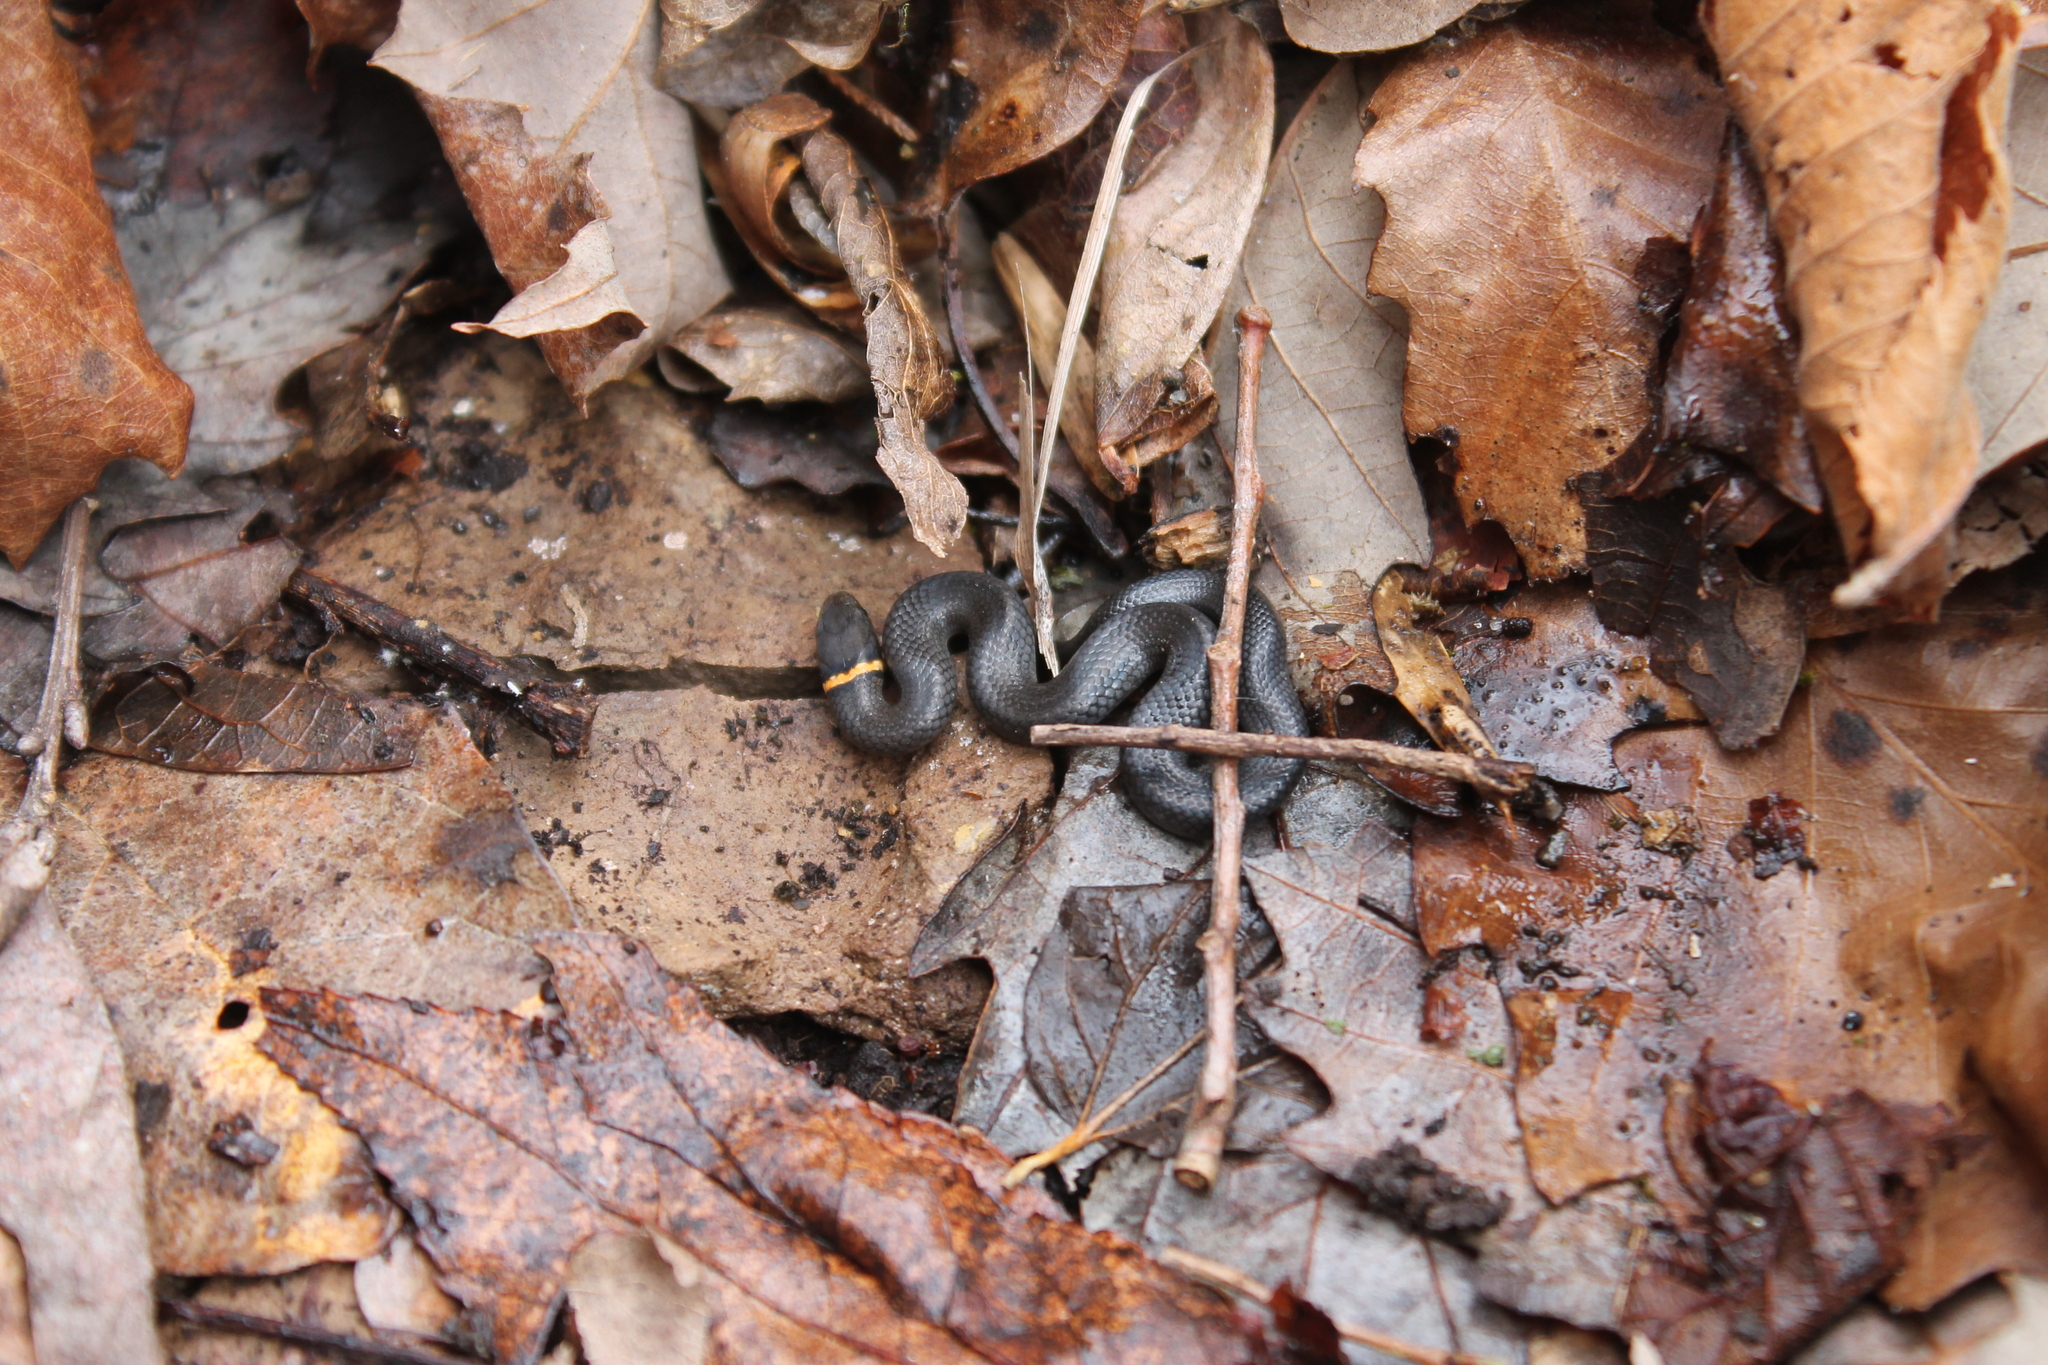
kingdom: Animalia
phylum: Chordata
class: Squamata
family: Colubridae
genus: Diadophis
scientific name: Diadophis punctatus
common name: Ringneck snake
